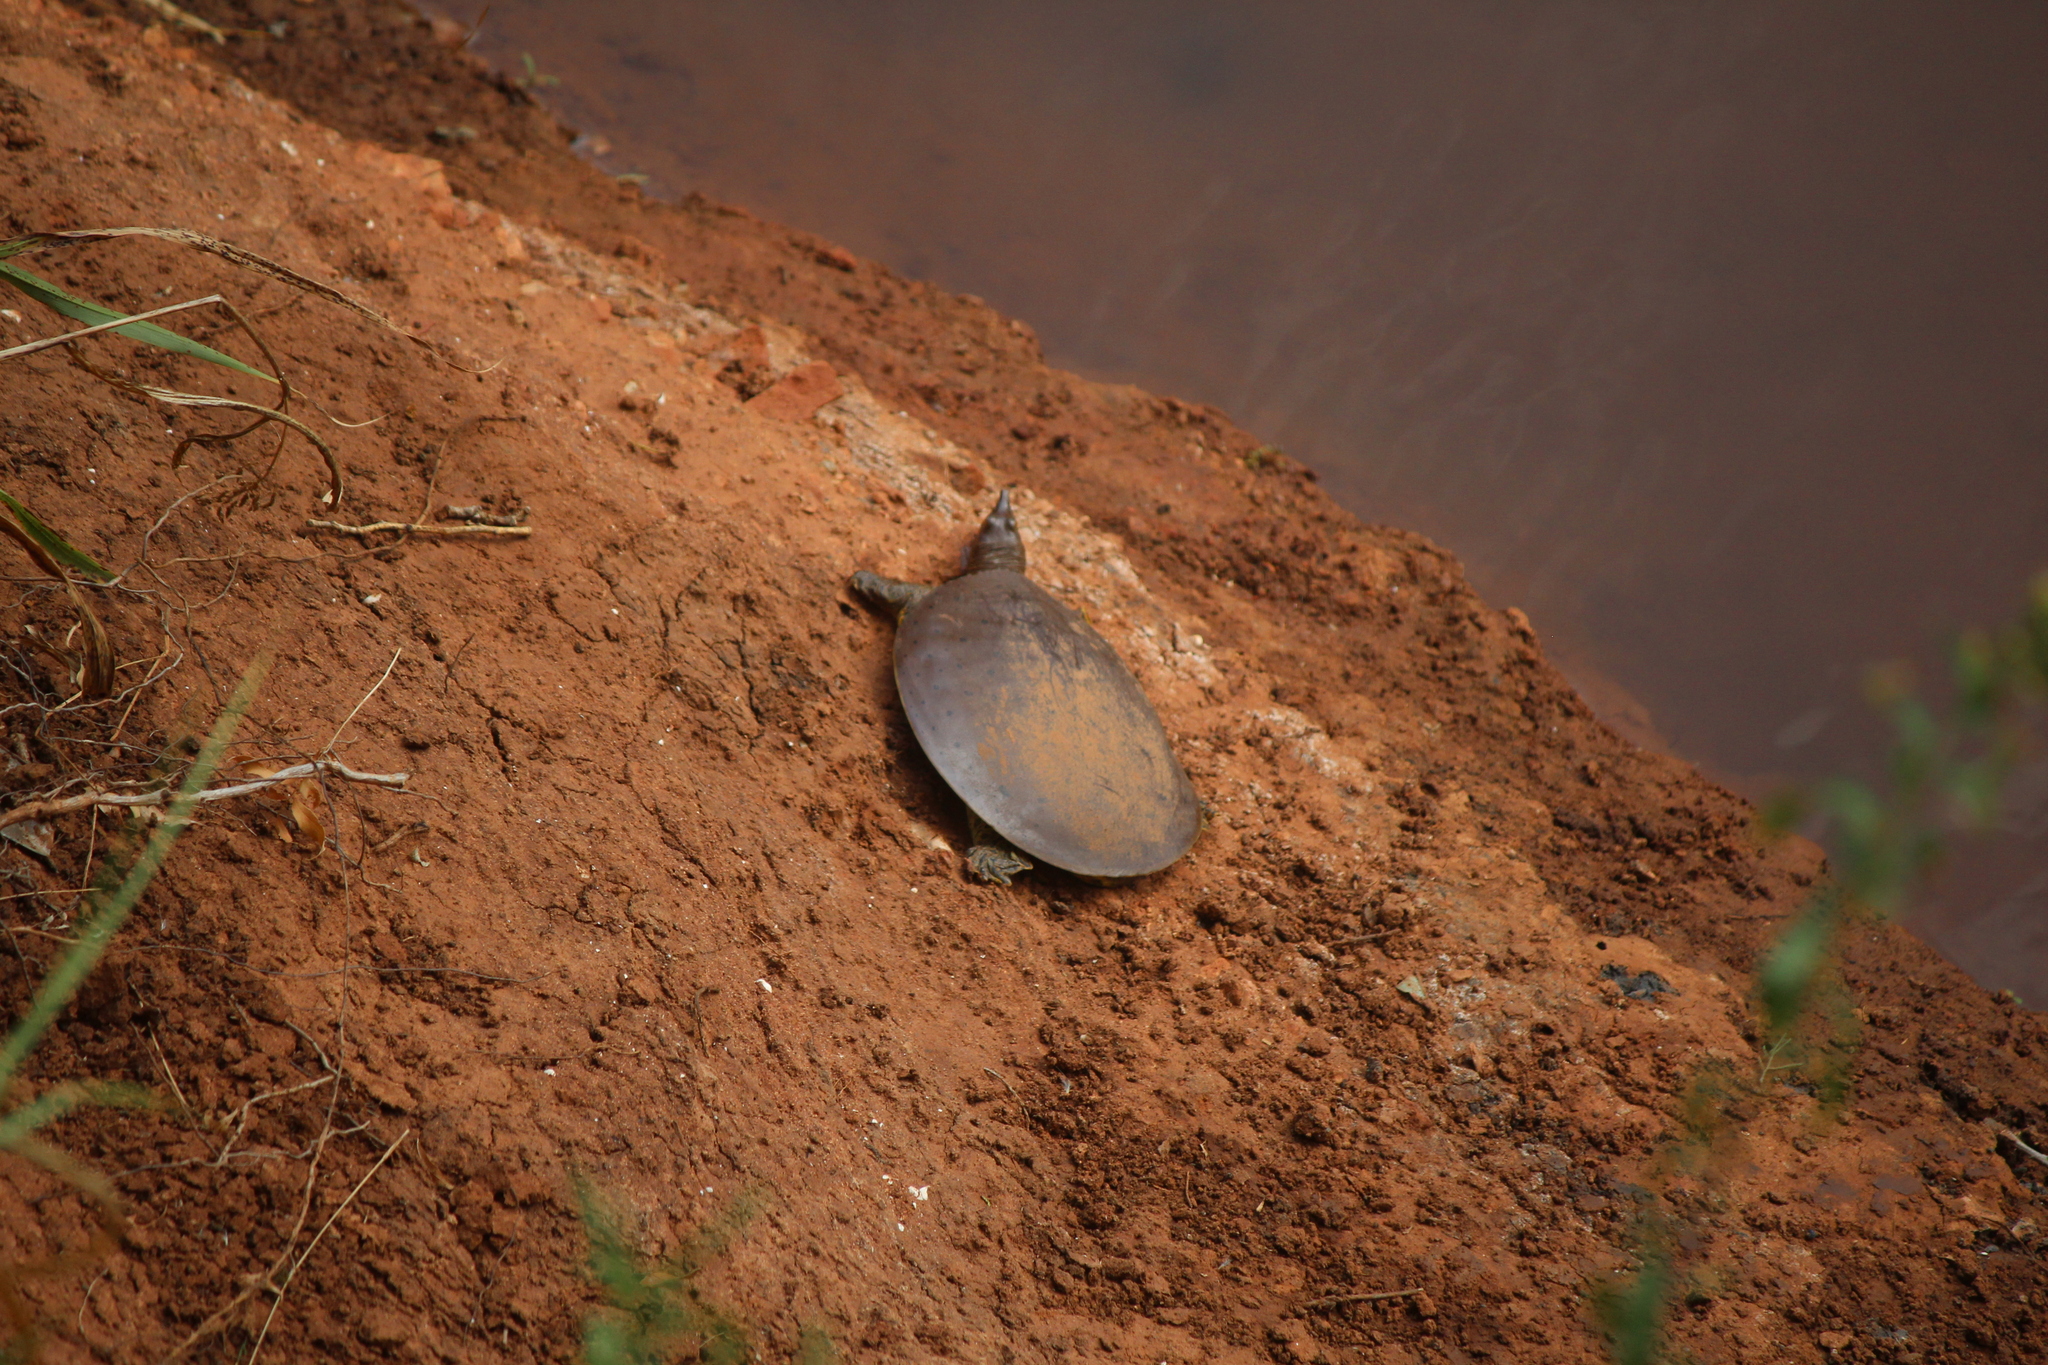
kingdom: Animalia
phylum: Chordata
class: Testudines
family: Trionychidae
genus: Apalone
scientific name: Apalone spinifera
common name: Spiny softshell turtle
